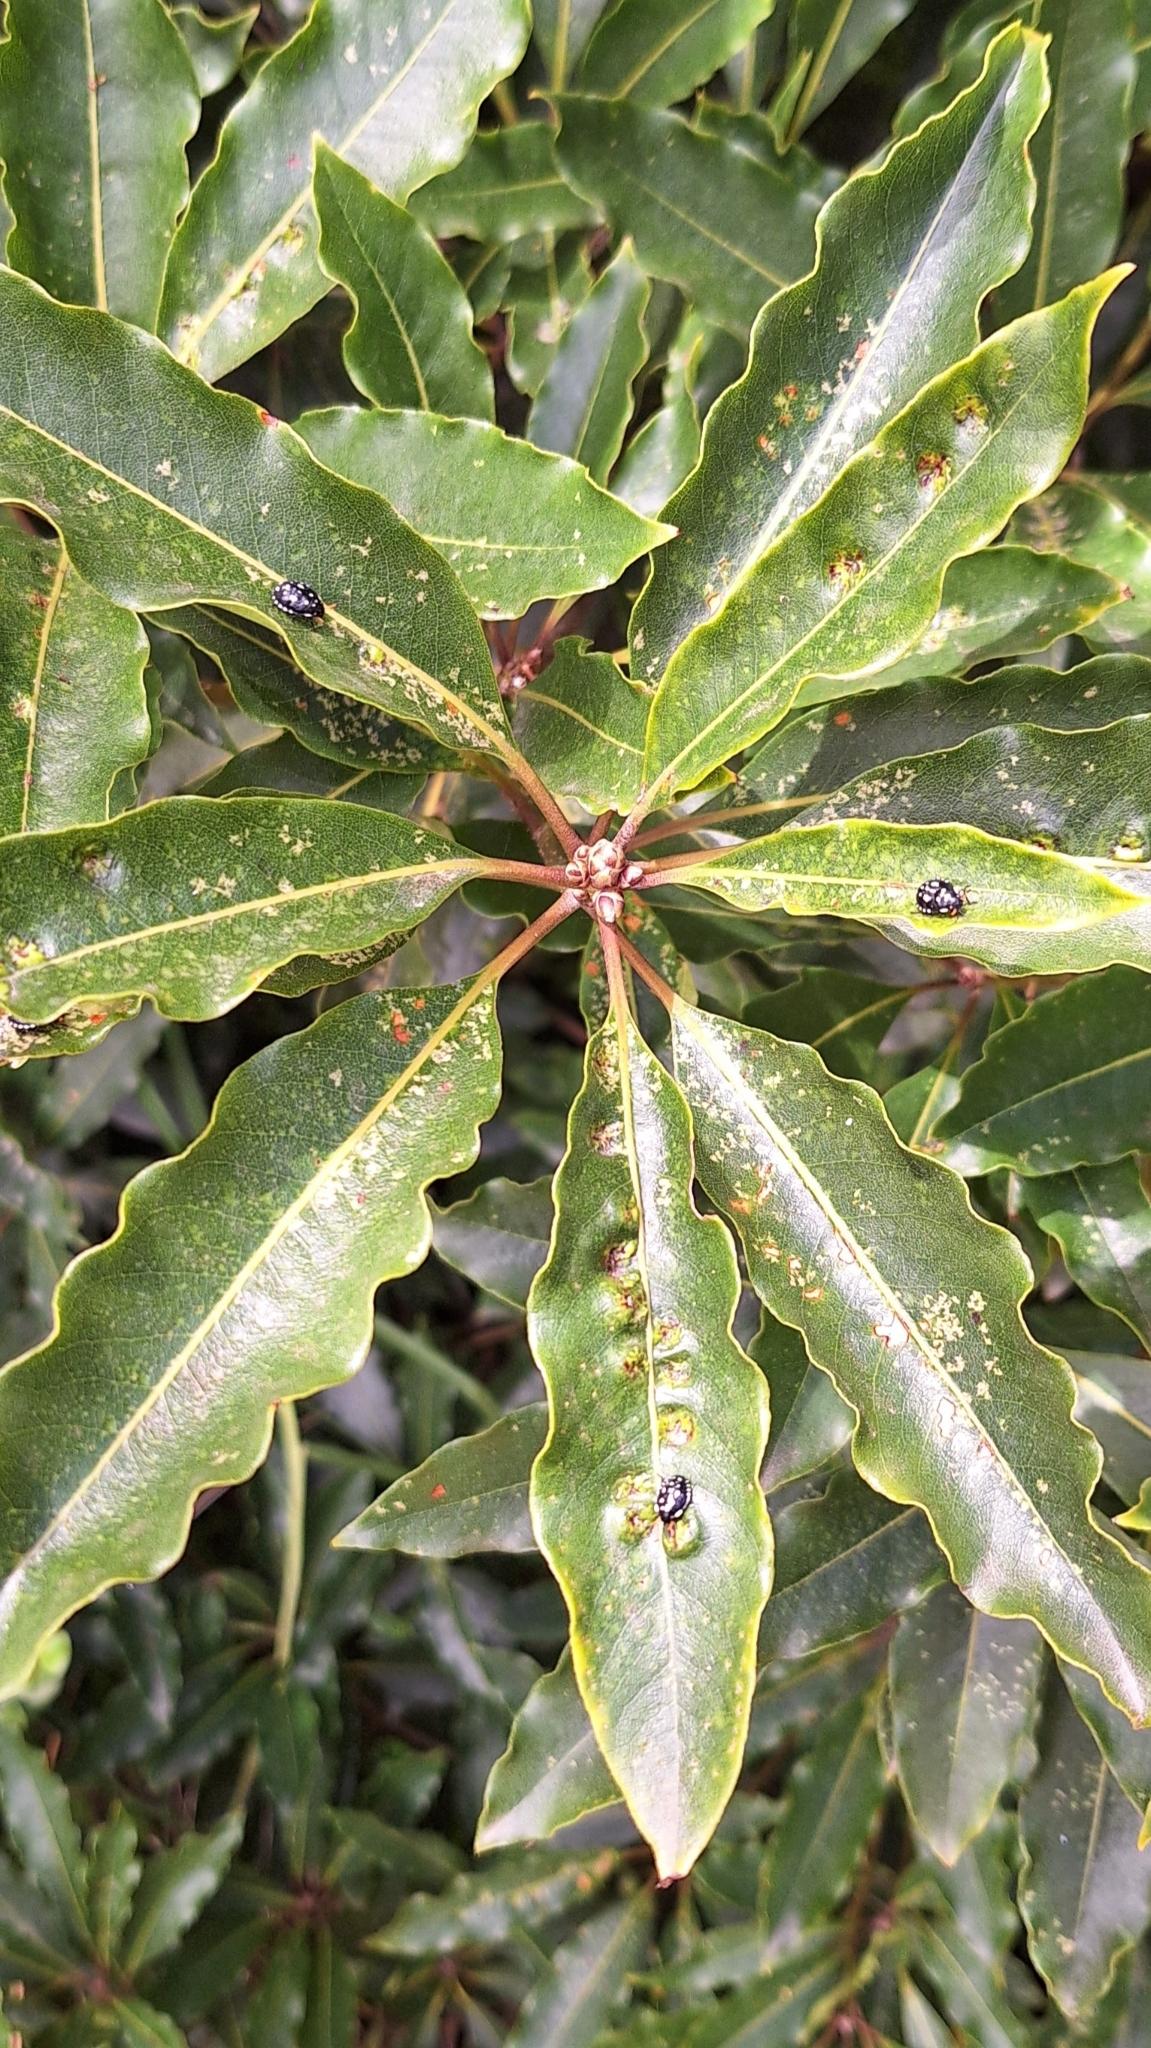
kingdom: Animalia
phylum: Arthropoda
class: Insecta
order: Diptera
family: Agromyzidae
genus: Phytoliriomyza
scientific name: Phytoliriomyza pittosporophylli
